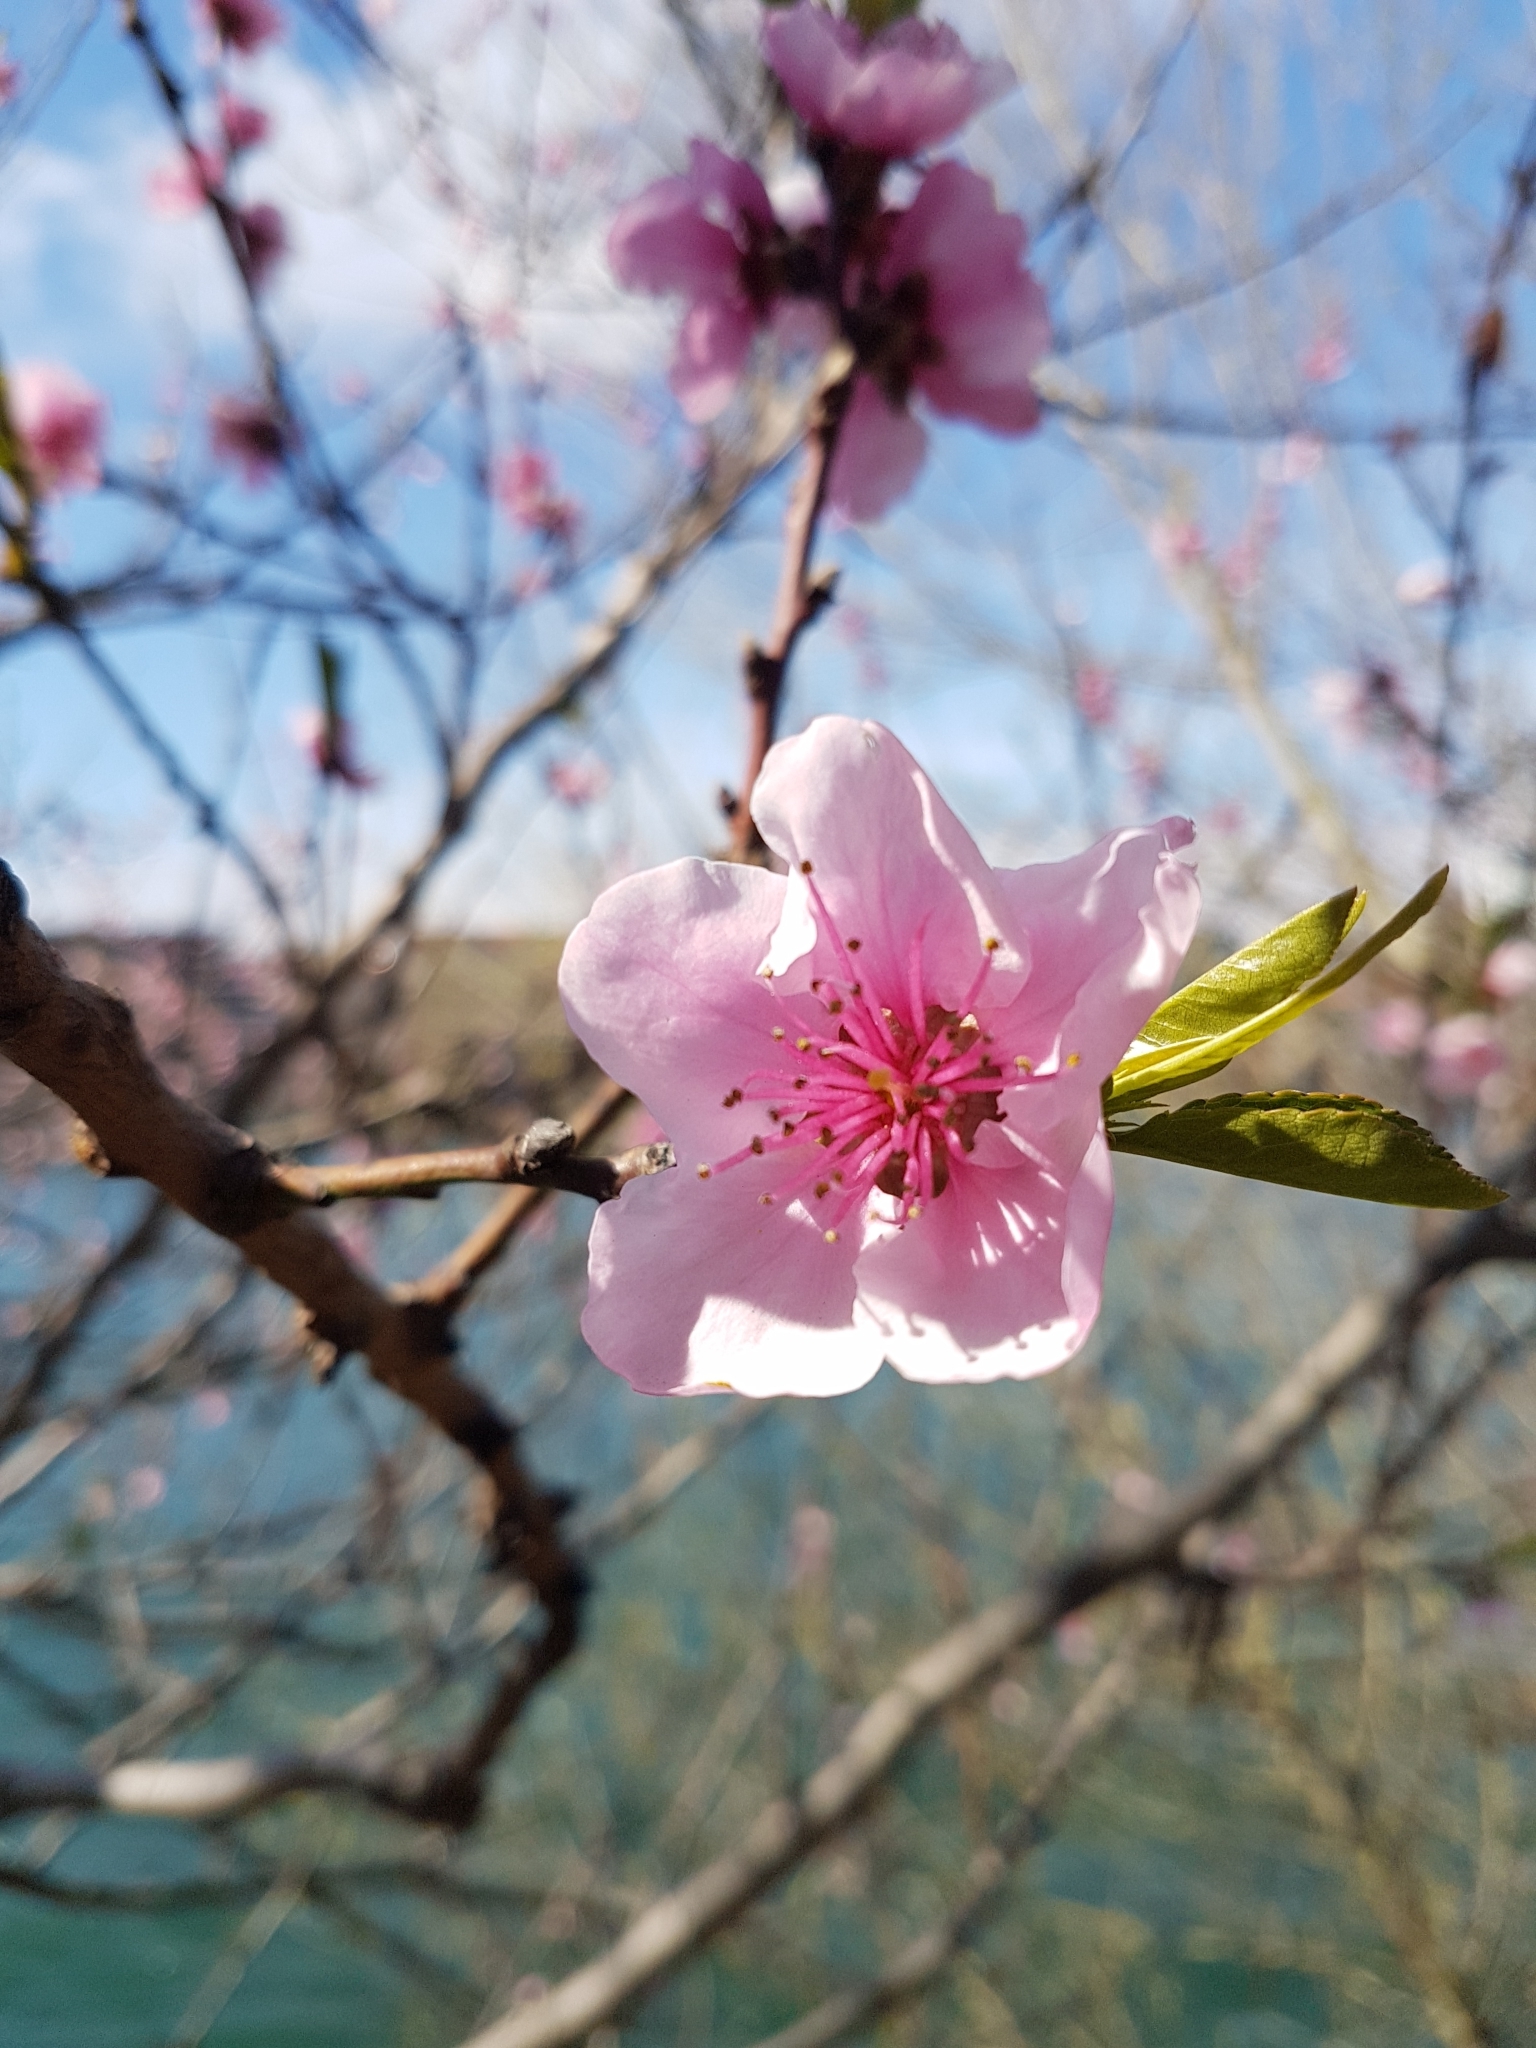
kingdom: Plantae
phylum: Tracheophyta
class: Magnoliopsida
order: Rosales
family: Rosaceae
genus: Prunus
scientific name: Prunus persica
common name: Peach
